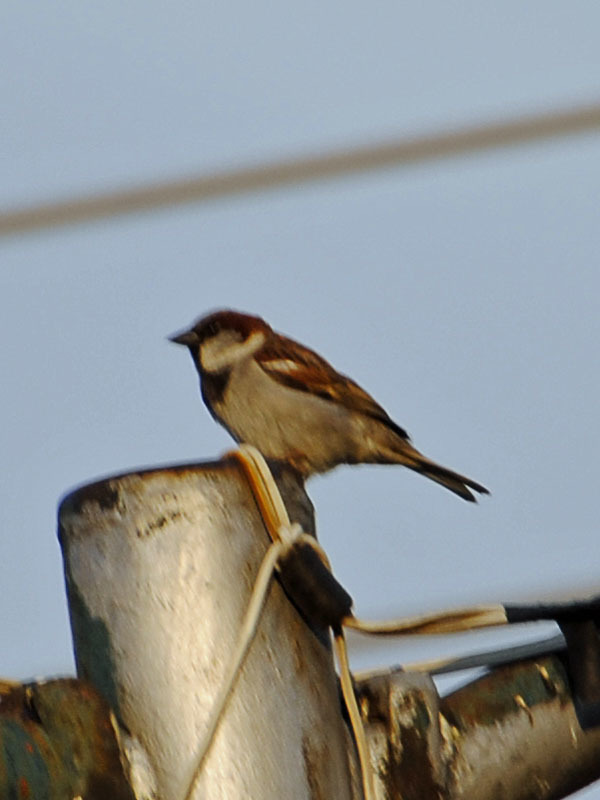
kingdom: Animalia
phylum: Chordata
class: Aves
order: Passeriformes
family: Passeridae
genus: Passer
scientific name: Passer domesticus
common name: House sparrow
